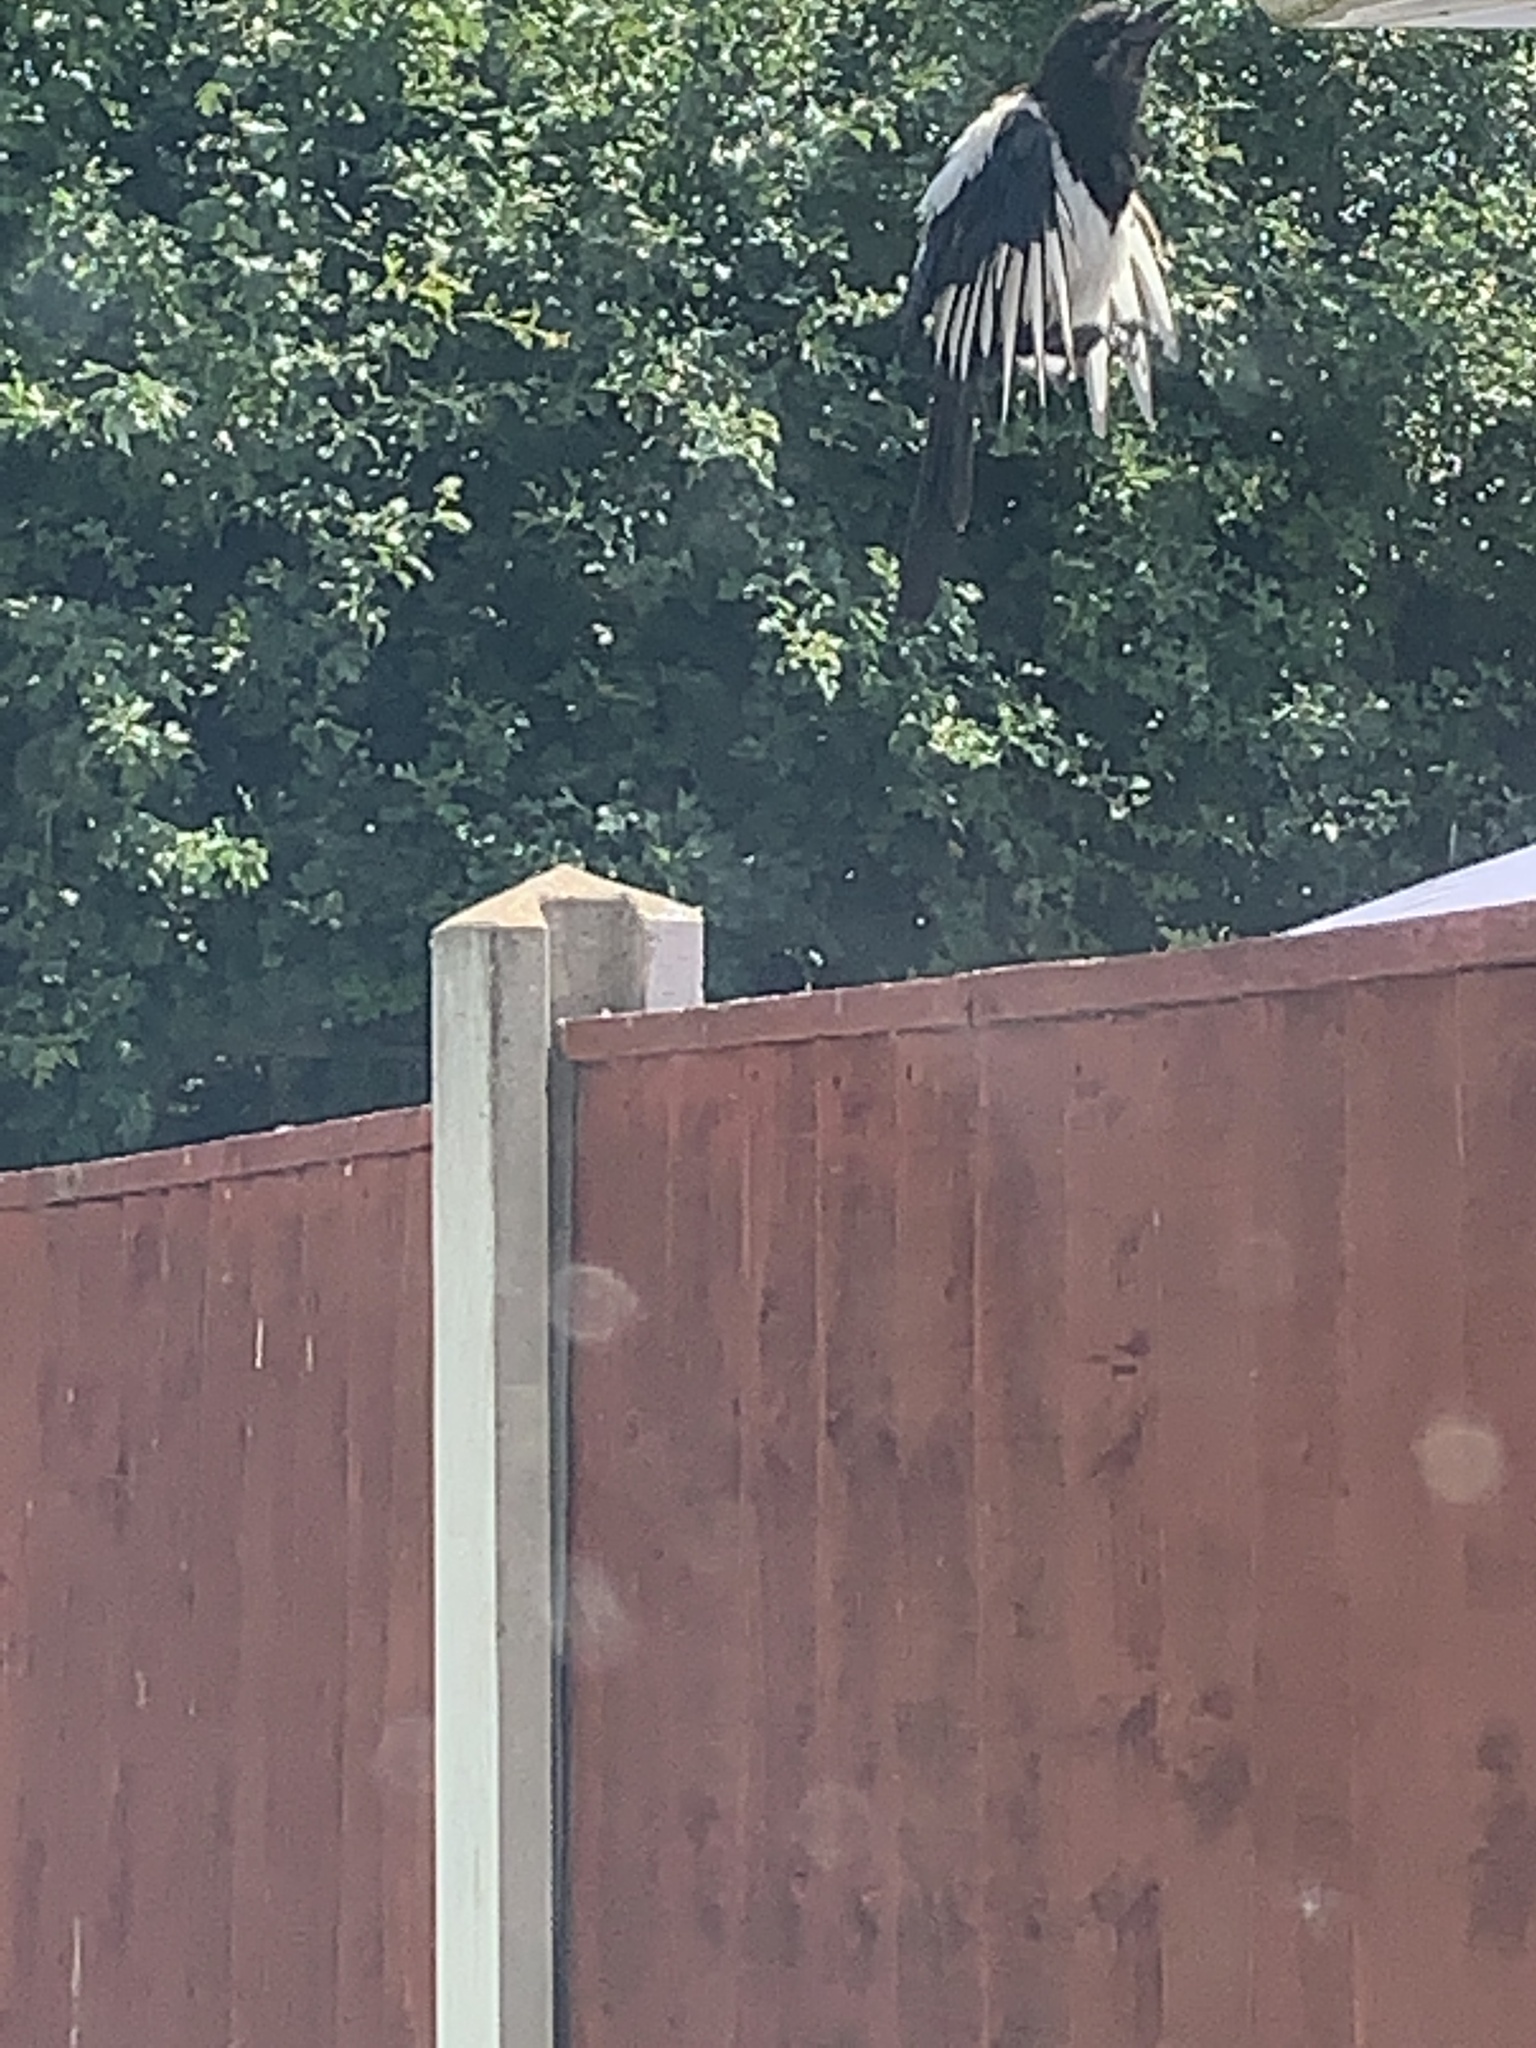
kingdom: Animalia
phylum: Chordata
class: Aves
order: Passeriformes
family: Corvidae
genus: Pica
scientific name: Pica pica
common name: Eurasian magpie
